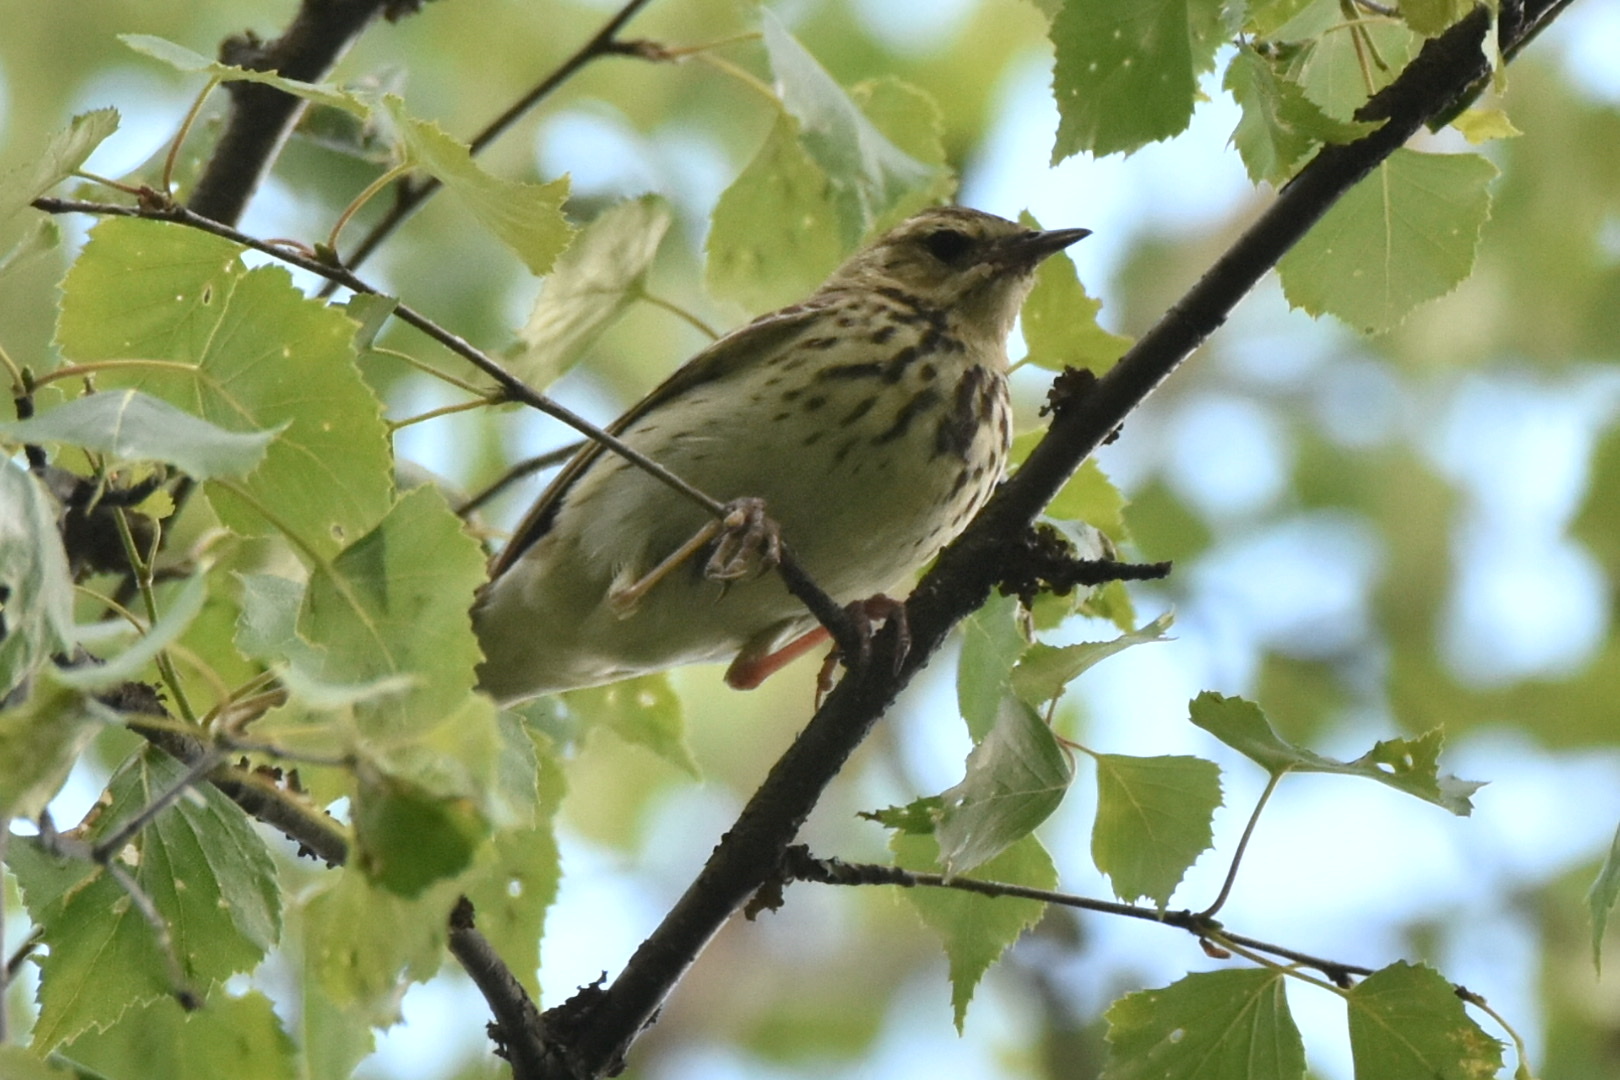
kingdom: Animalia
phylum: Chordata
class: Aves
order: Passeriformes
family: Motacillidae
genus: Anthus
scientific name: Anthus trivialis
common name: Tree pipit
